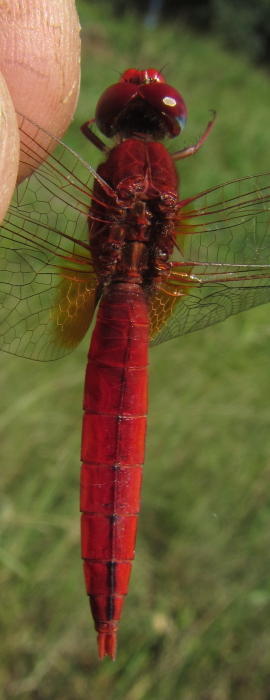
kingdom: Animalia
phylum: Arthropoda
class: Insecta
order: Odonata
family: Libellulidae
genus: Crocothemis
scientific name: Crocothemis erythraea
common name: Scarlet dragonfly
